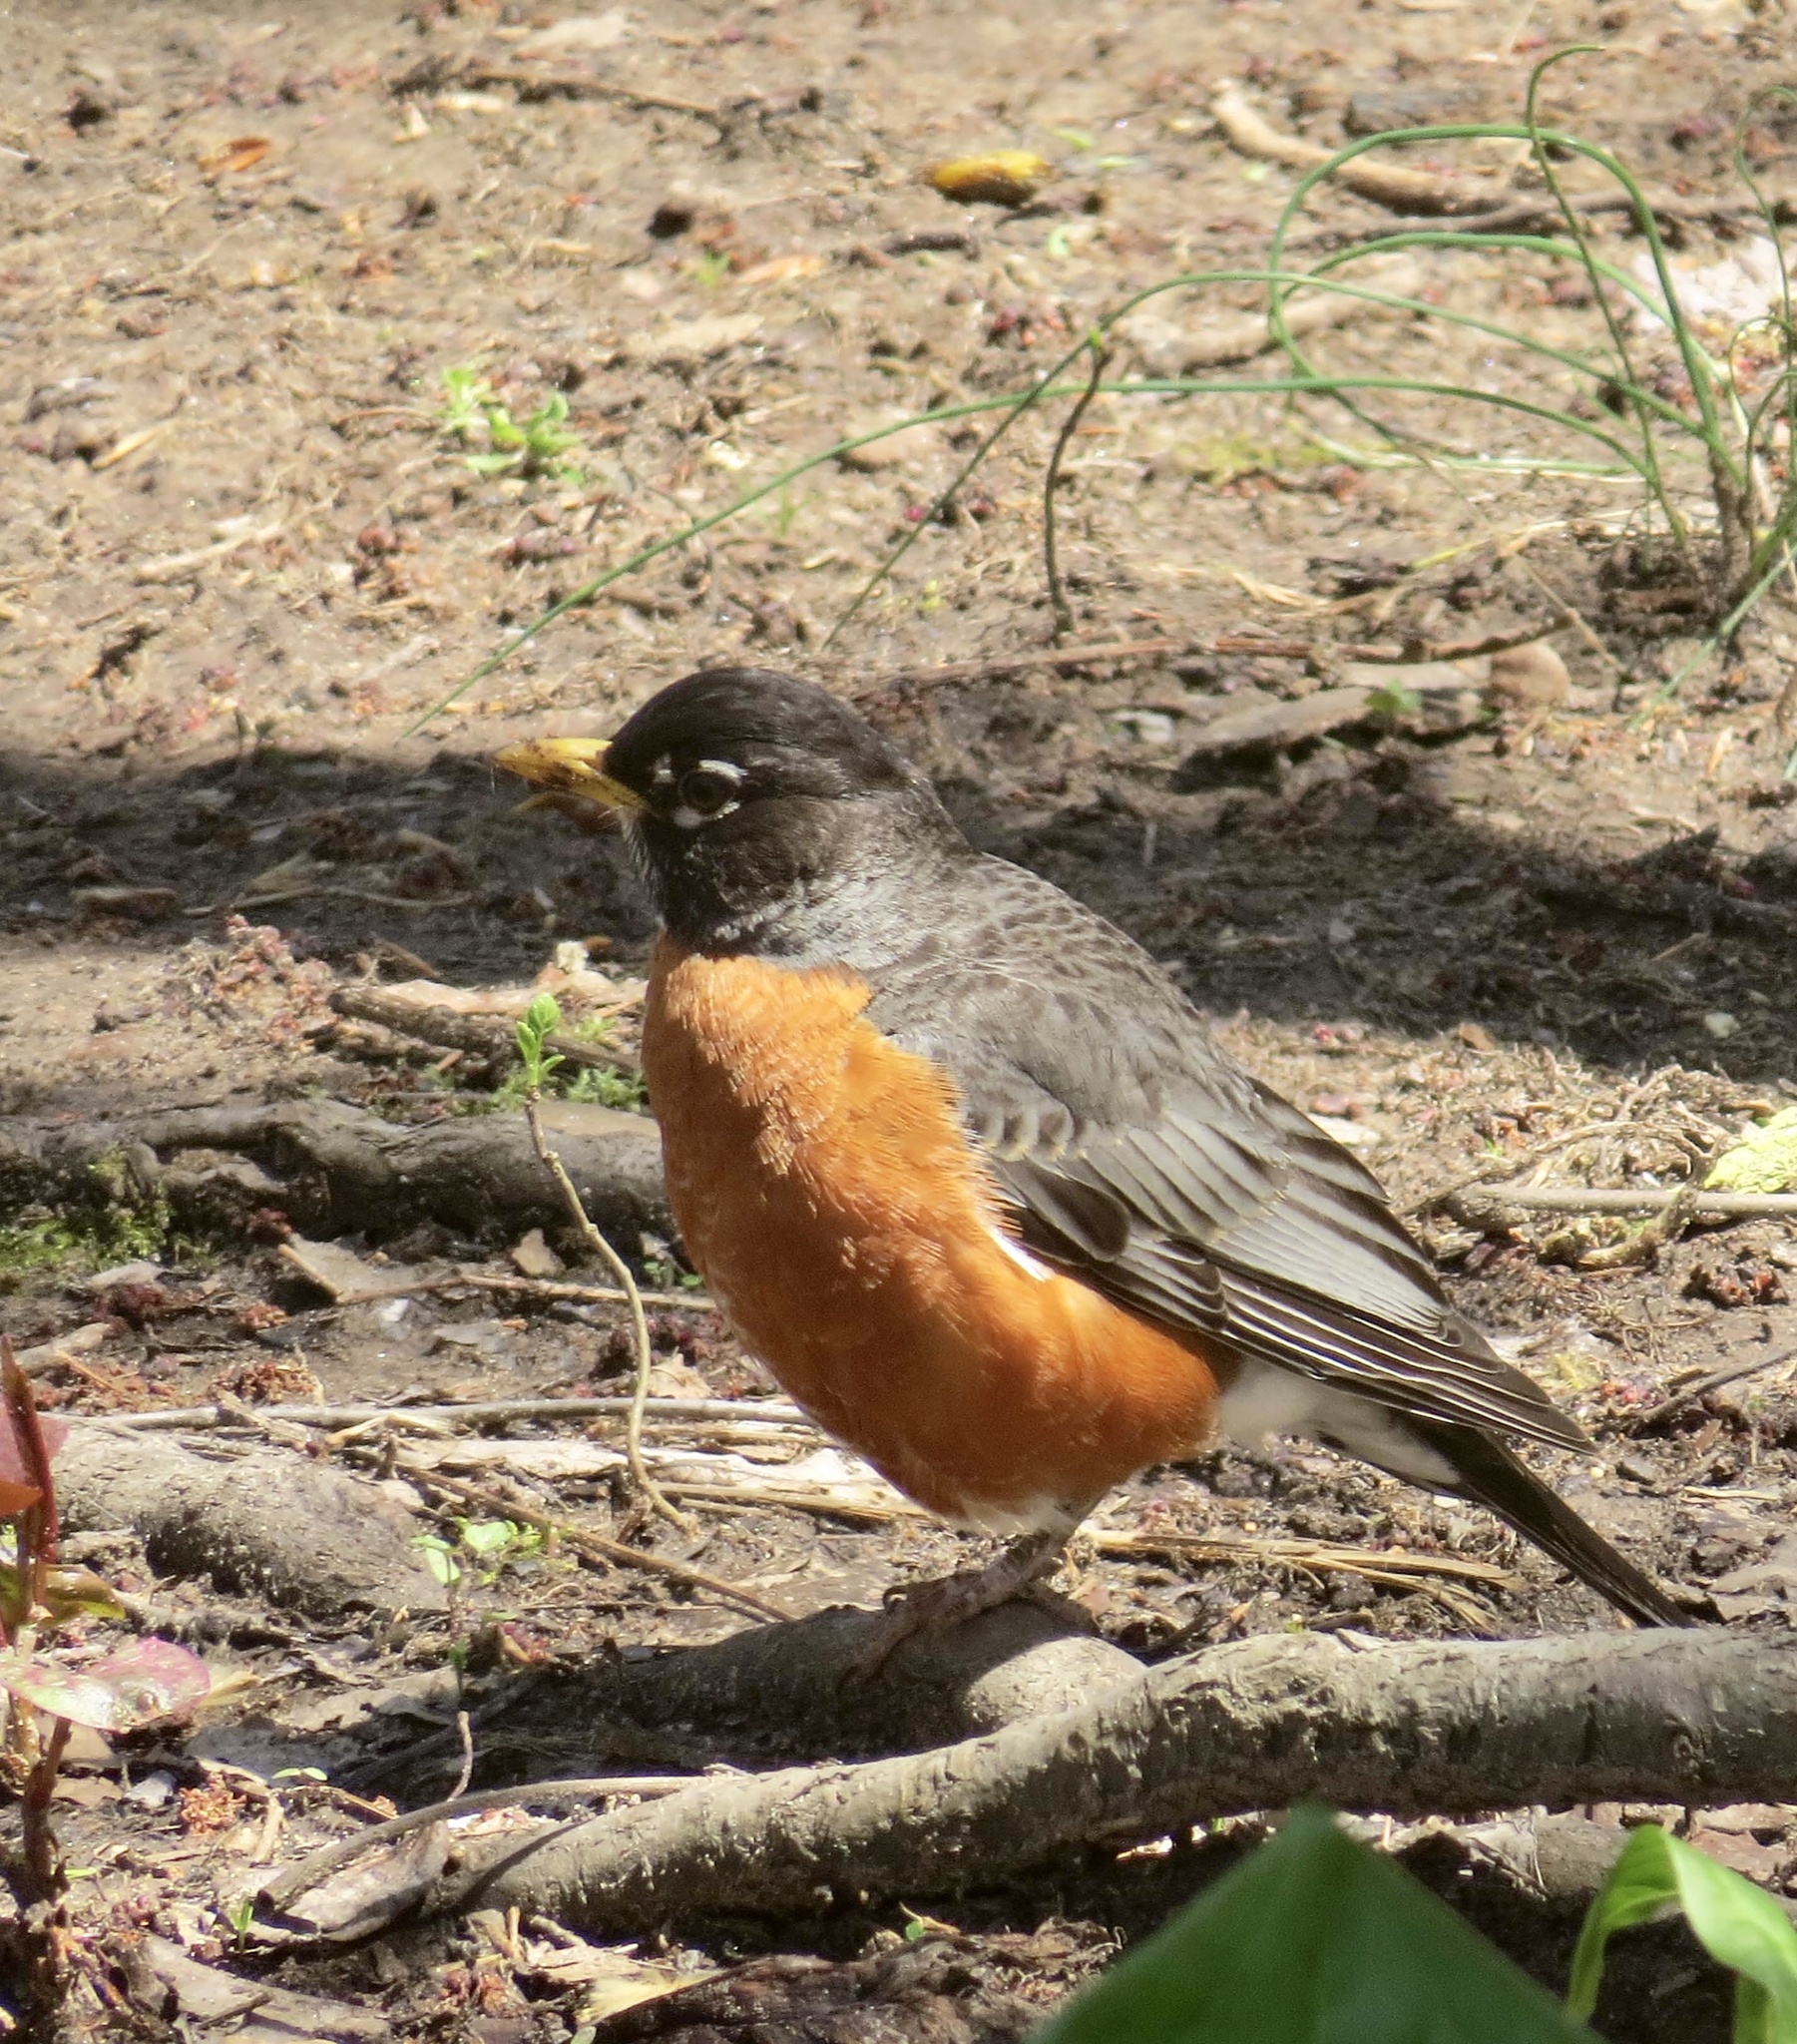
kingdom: Animalia
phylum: Chordata
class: Aves
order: Passeriformes
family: Turdidae
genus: Turdus
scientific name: Turdus migratorius
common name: American robin
